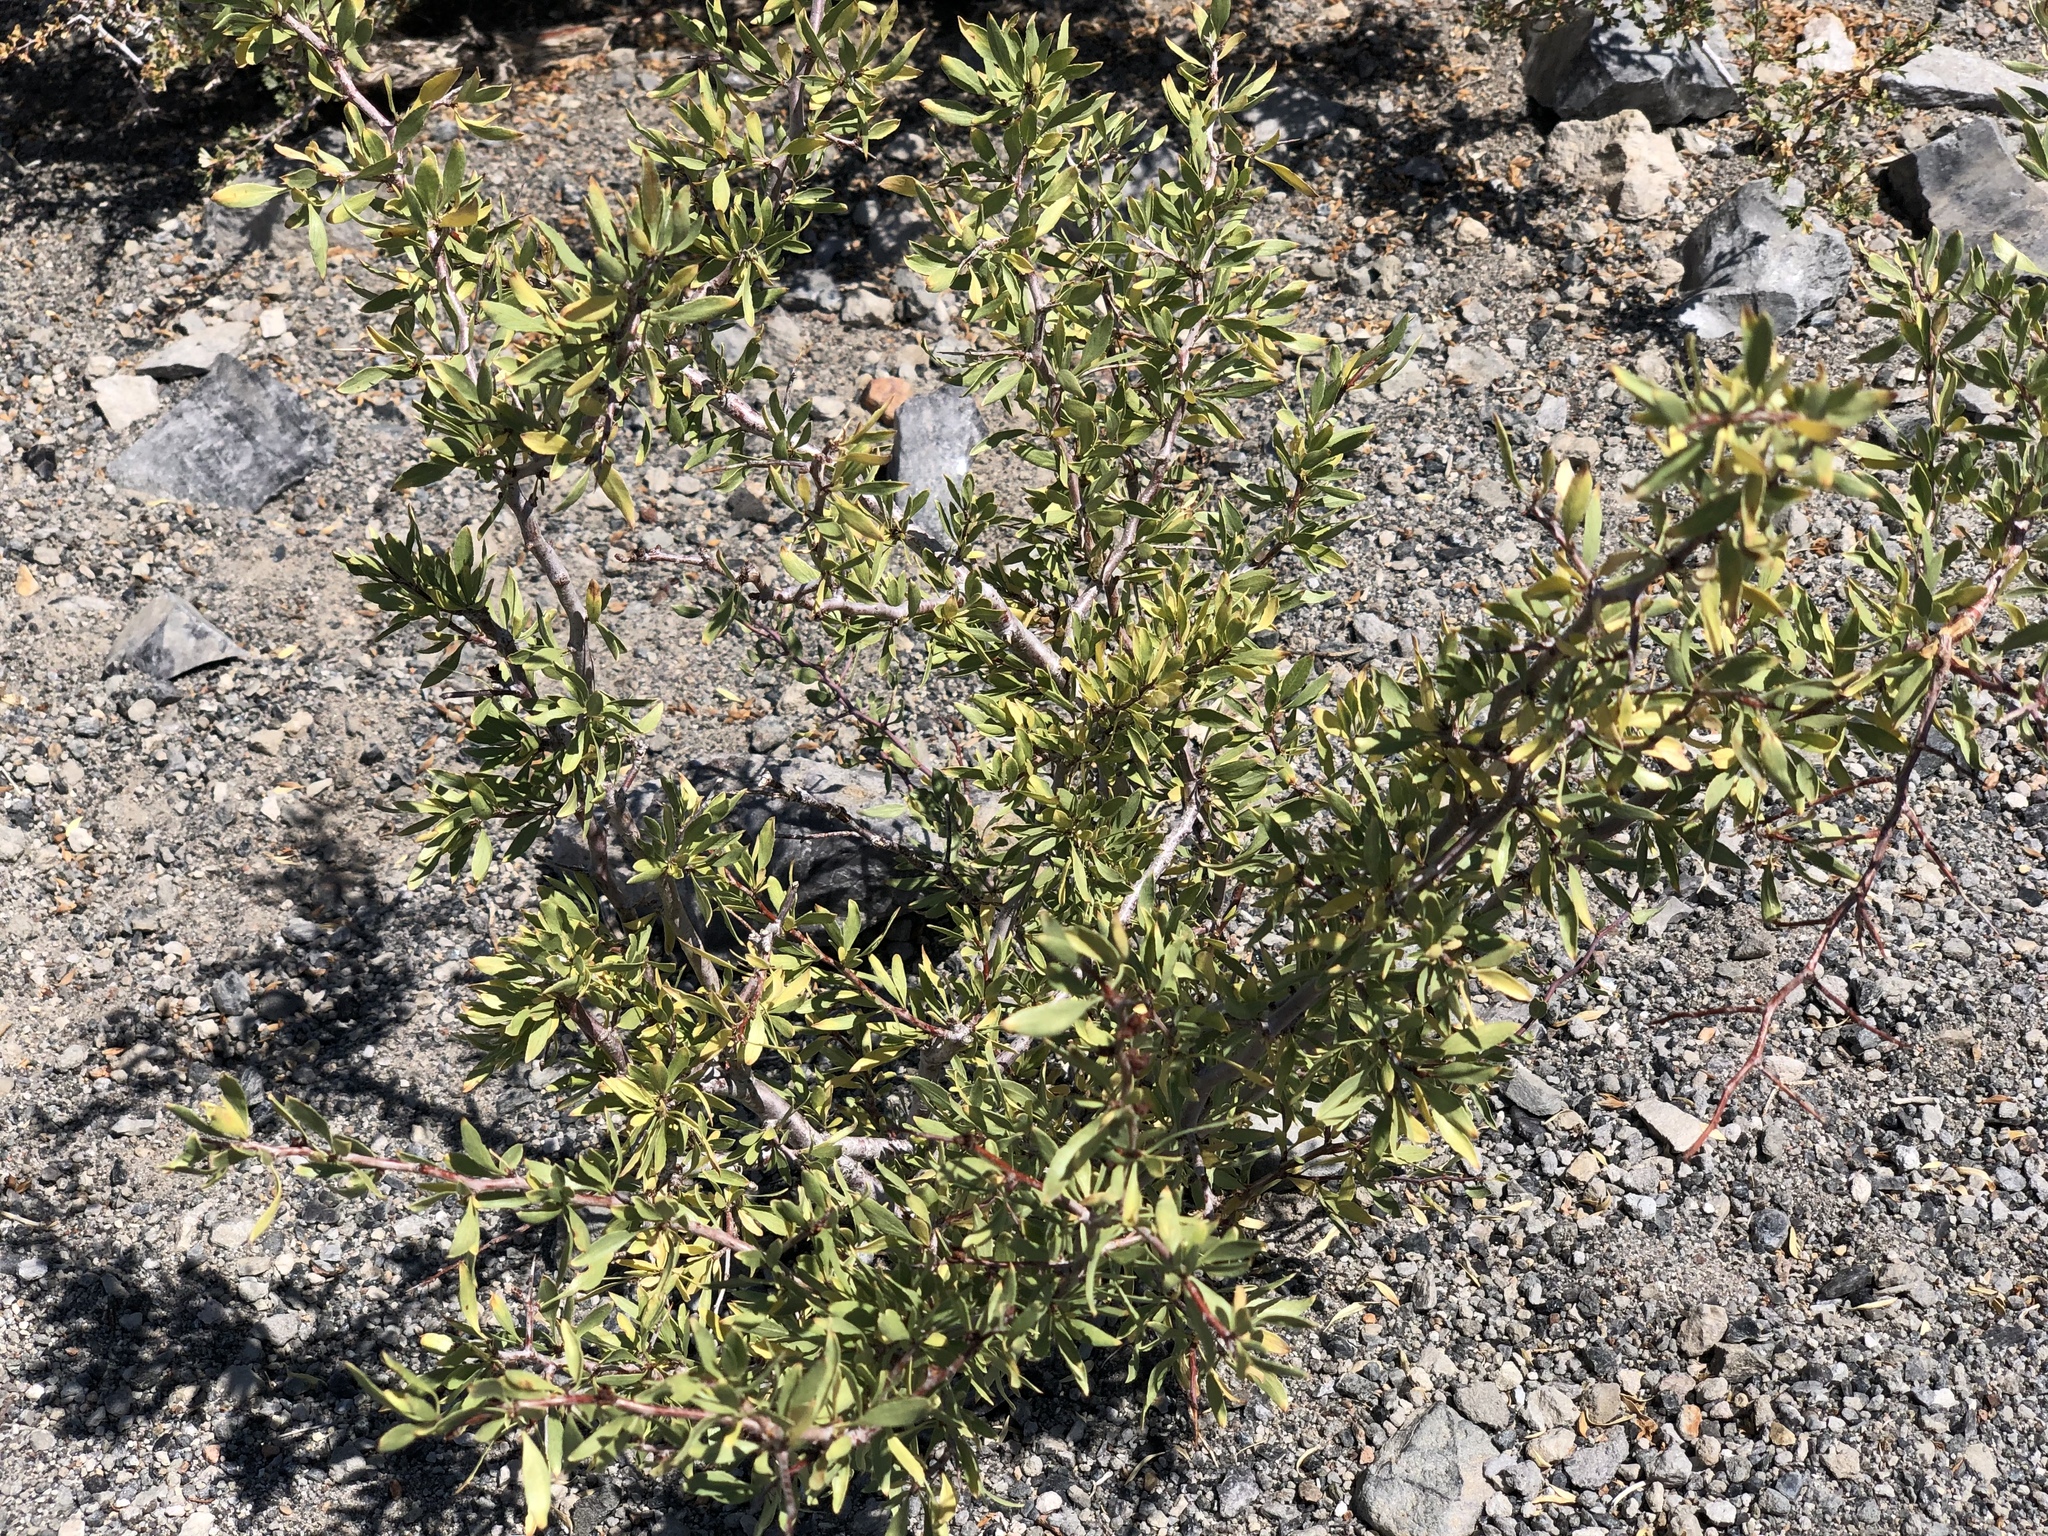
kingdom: Plantae
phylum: Tracheophyta
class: Magnoliopsida
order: Rosales
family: Rosaceae
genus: Prunus
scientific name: Prunus andersonii
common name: Desert peach
